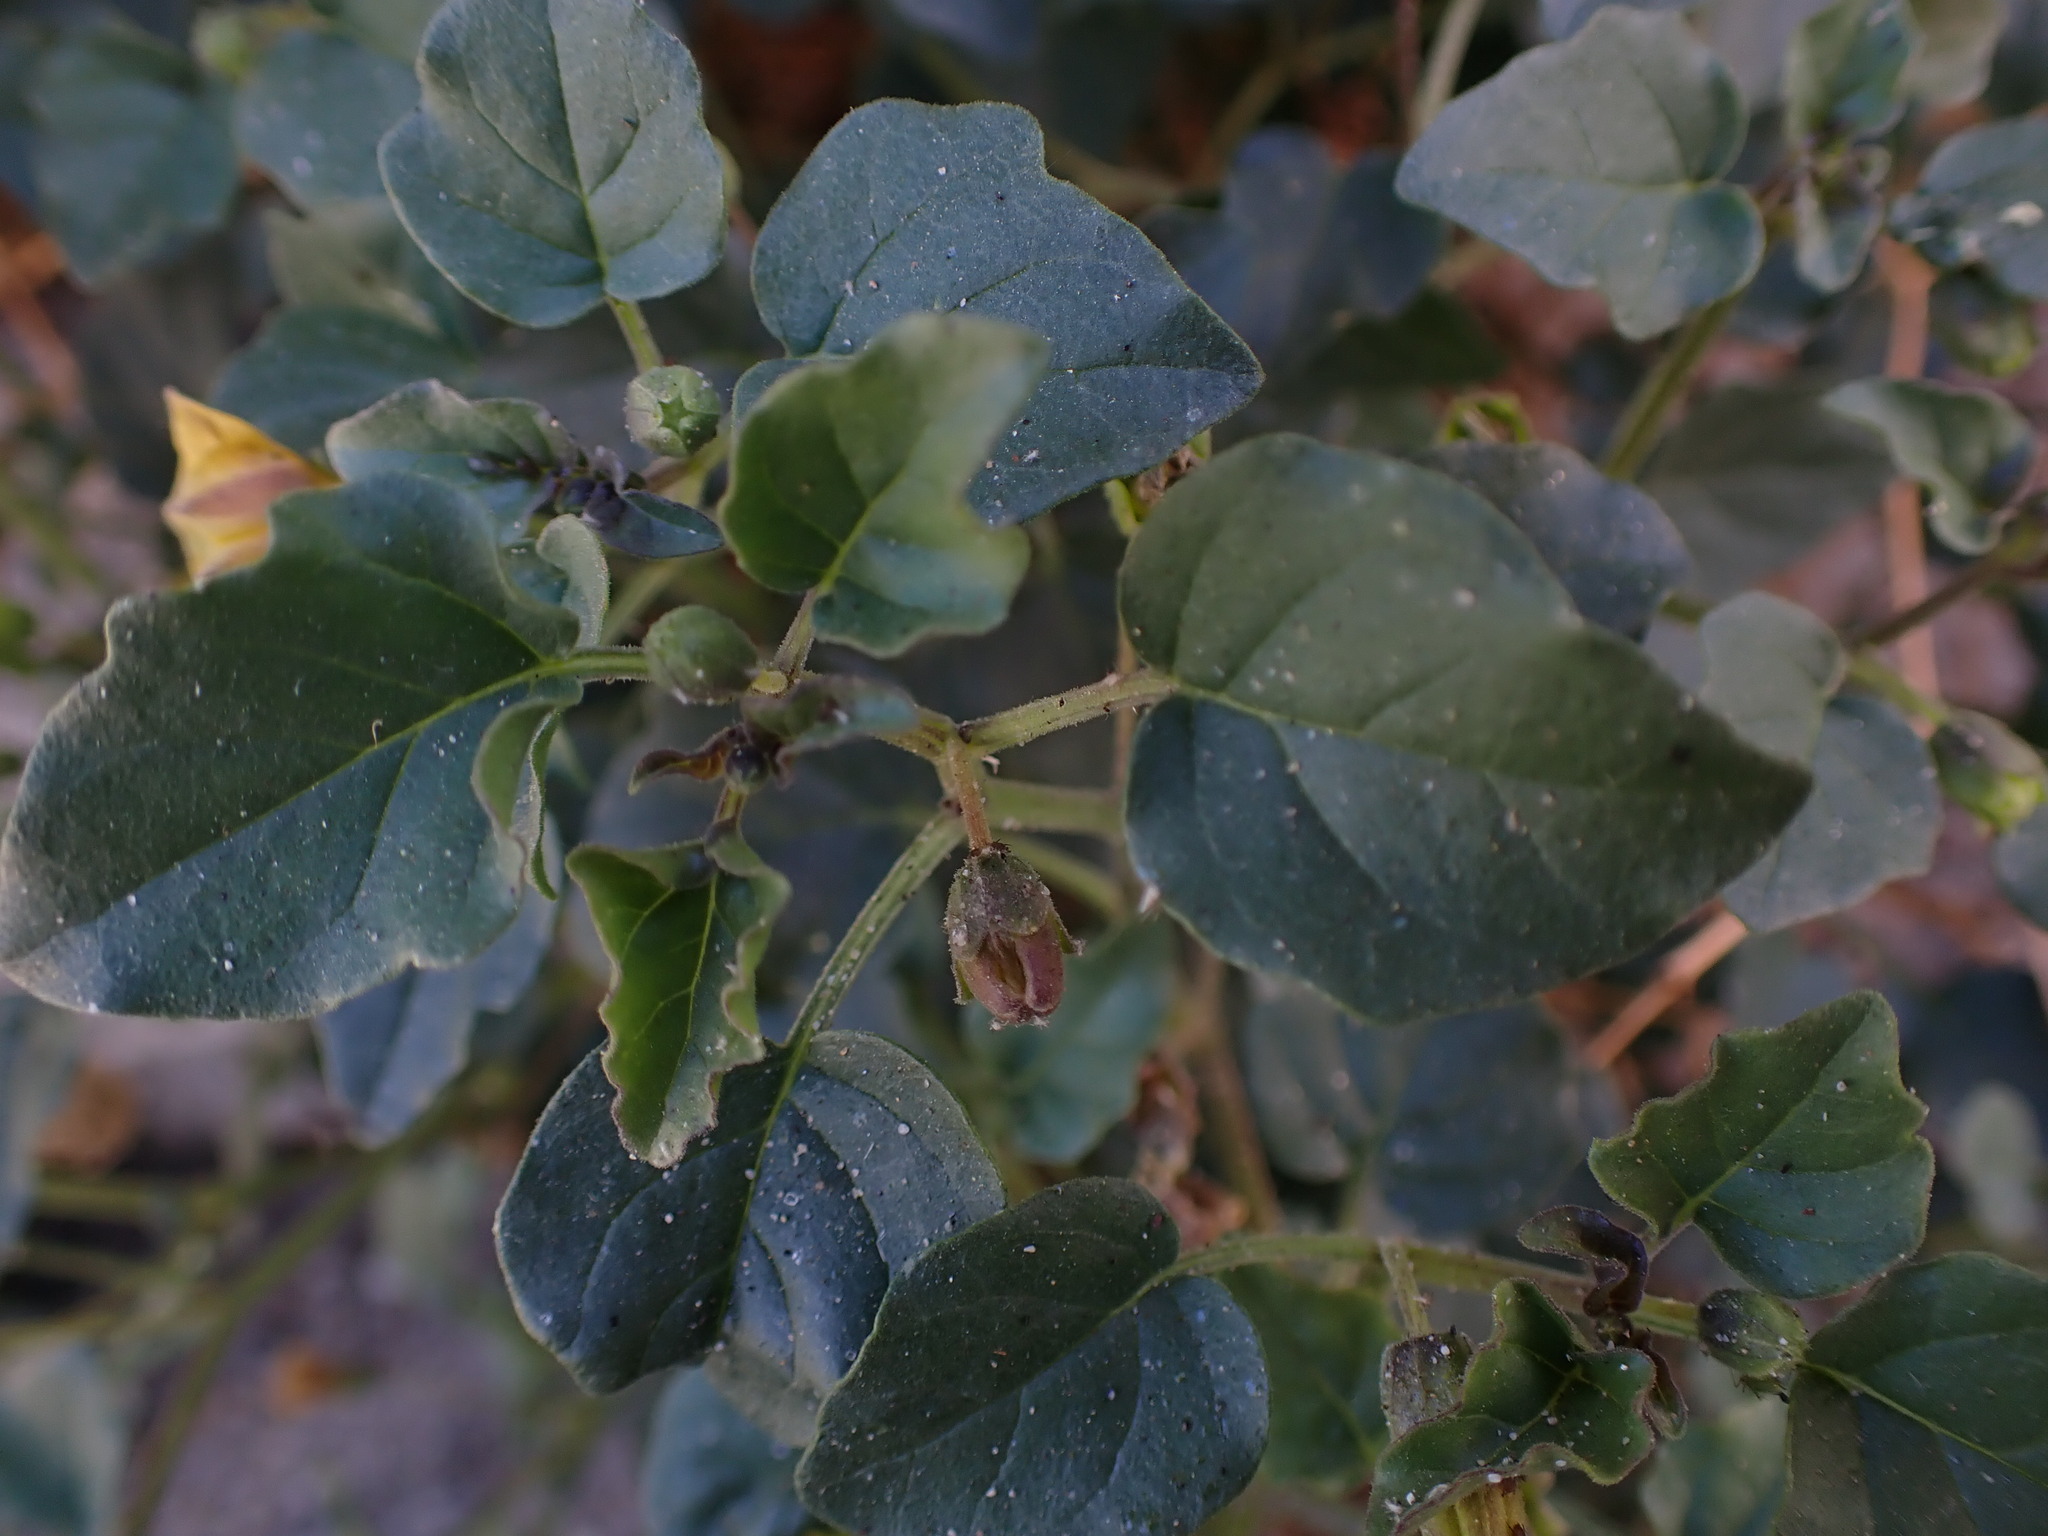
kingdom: Plantae
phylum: Tracheophyta
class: Magnoliopsida
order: Solanales
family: Solanaceae
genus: Physalis
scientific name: Physalis crassifolia
